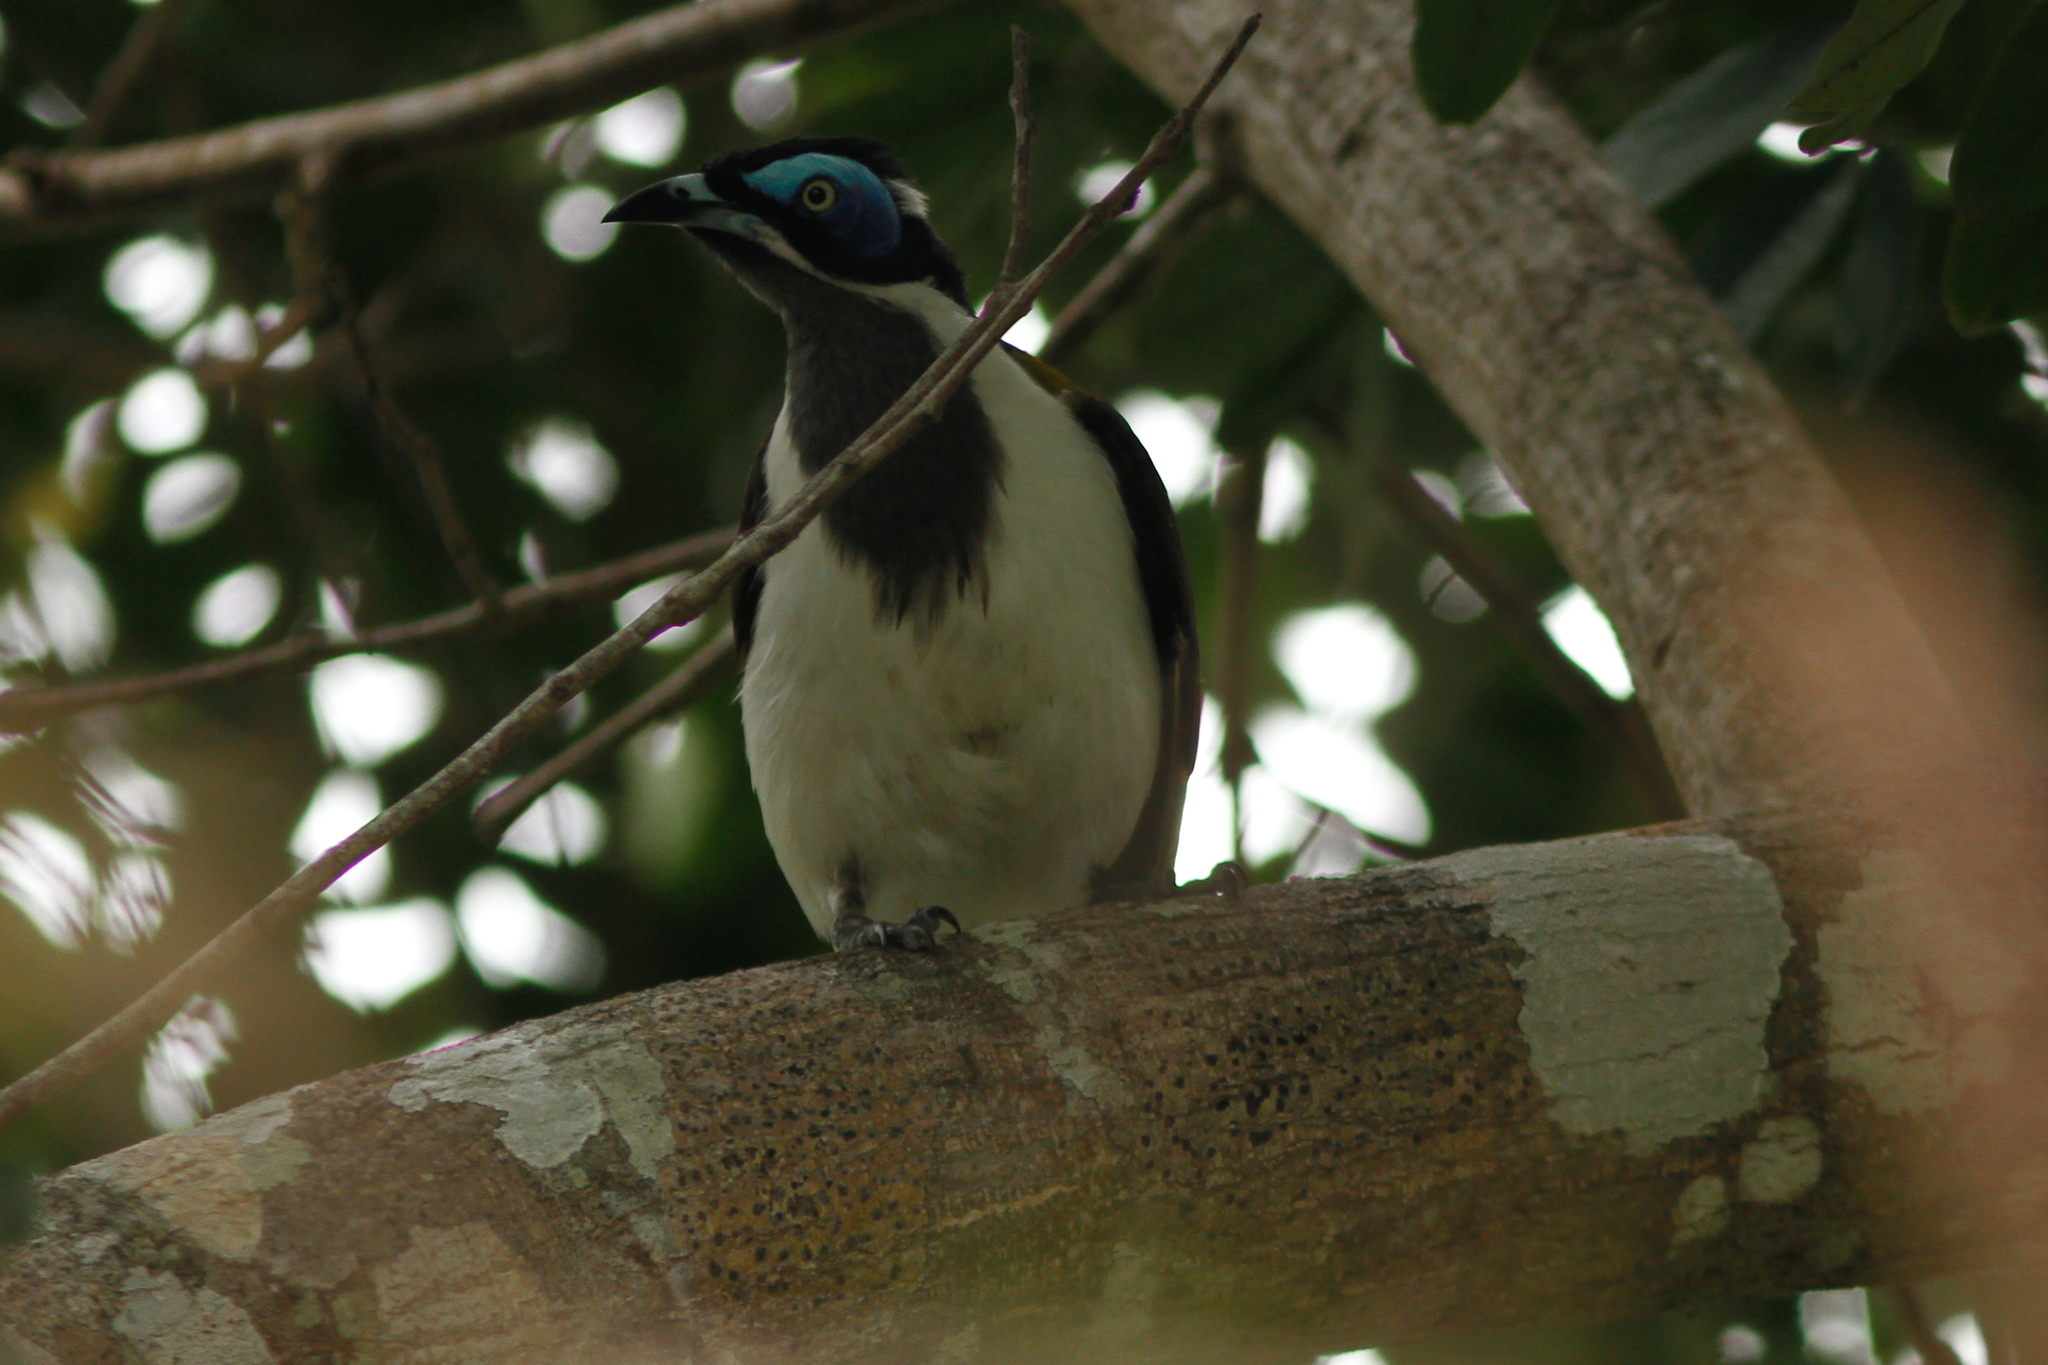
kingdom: Animalia
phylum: Chordata
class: Aves
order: Passeriformes
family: Meliphagidae
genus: Entomyzon
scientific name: Entomyzon cyanotis
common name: Blue-faced honeyeater
